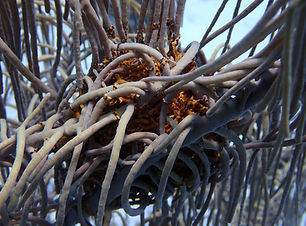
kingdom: Animalia
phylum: Echinodermata
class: Ophiuroidea
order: Euryalida
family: Gorgonocephalidae
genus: Astrophyton
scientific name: Astrophyton muricatum
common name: Basket starfish
